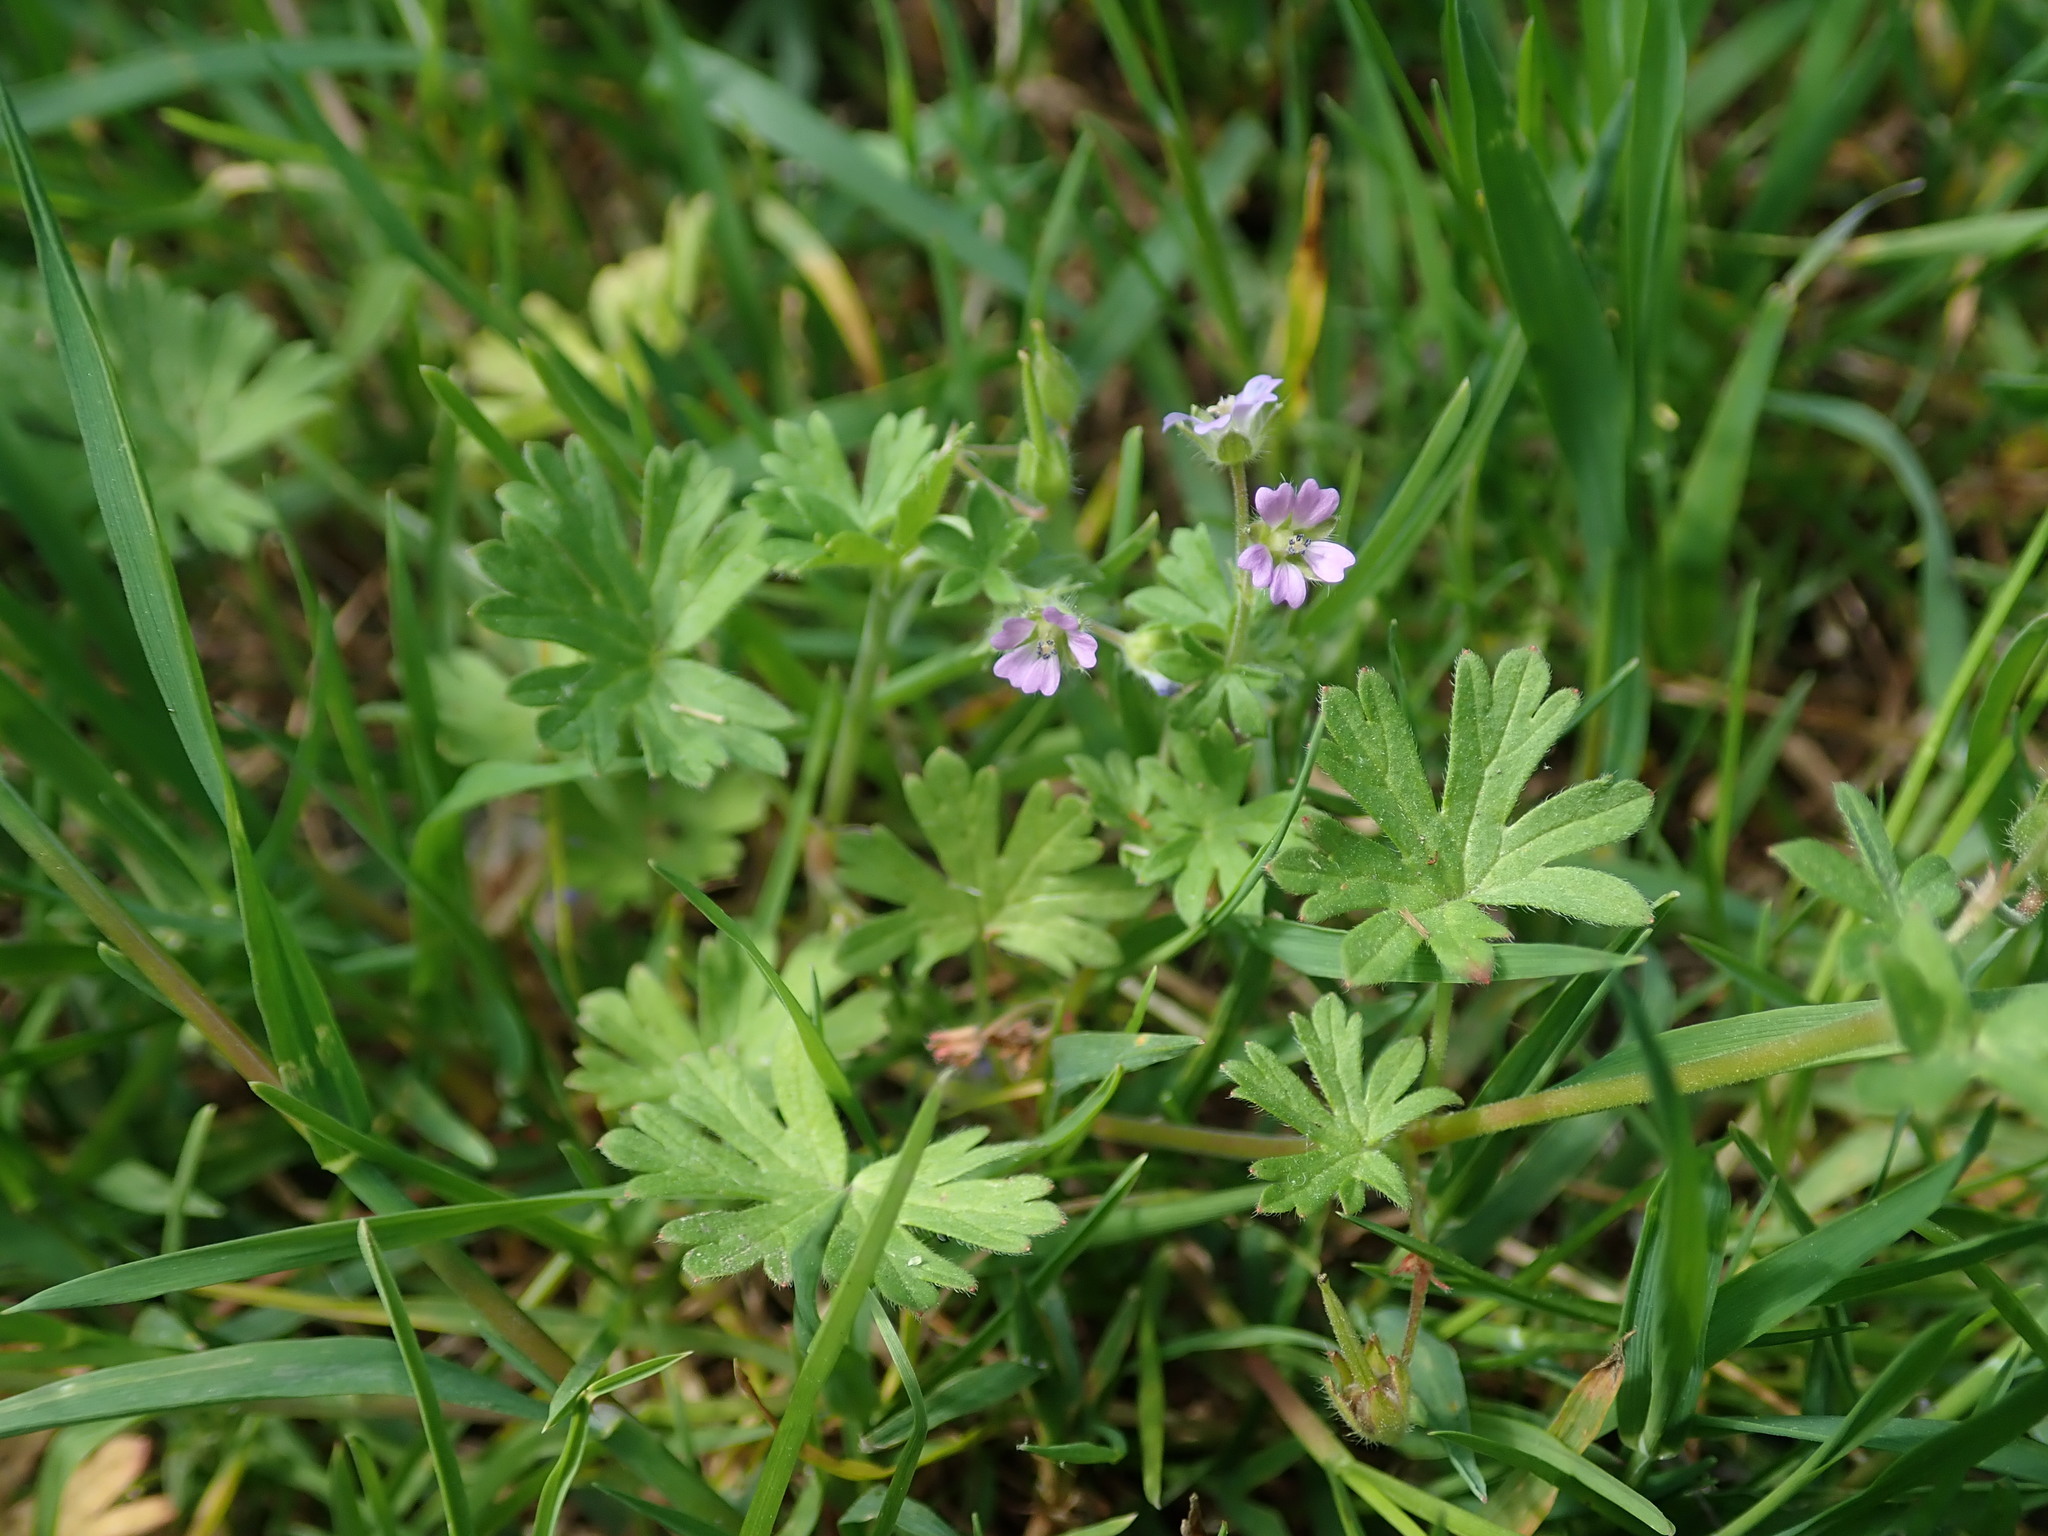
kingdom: Plantae
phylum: Tracheophyta
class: Magnoliopsida
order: Geraniales
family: Geraniaceae
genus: Geranium
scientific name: Geranium pusillum
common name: Small geranium
